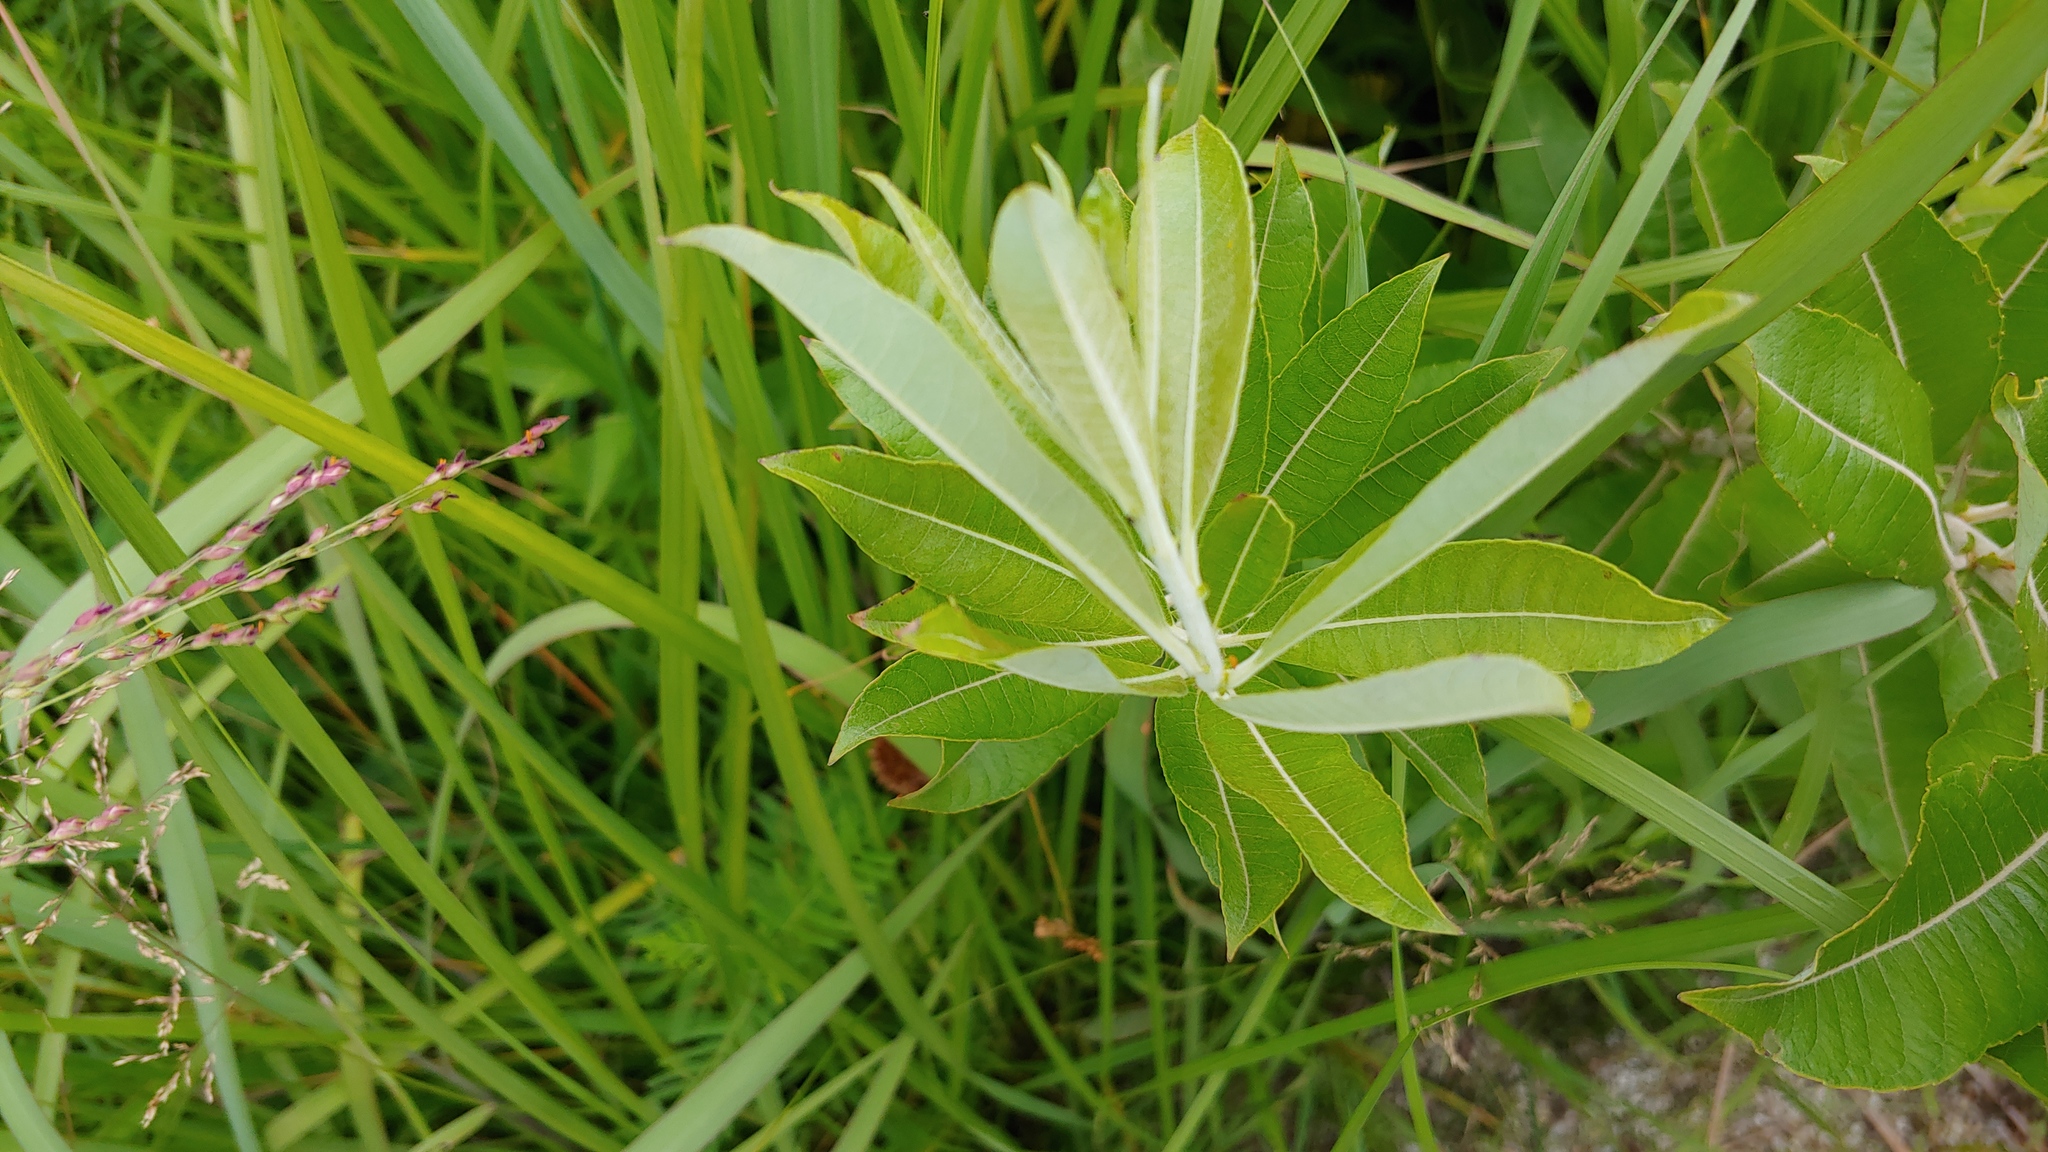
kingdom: Plantae
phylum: Tracheophyta
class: Magnoliopsida
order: Malpighiales
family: Salicaceae
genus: Salix
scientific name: Salix humilis
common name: Prairie willow
